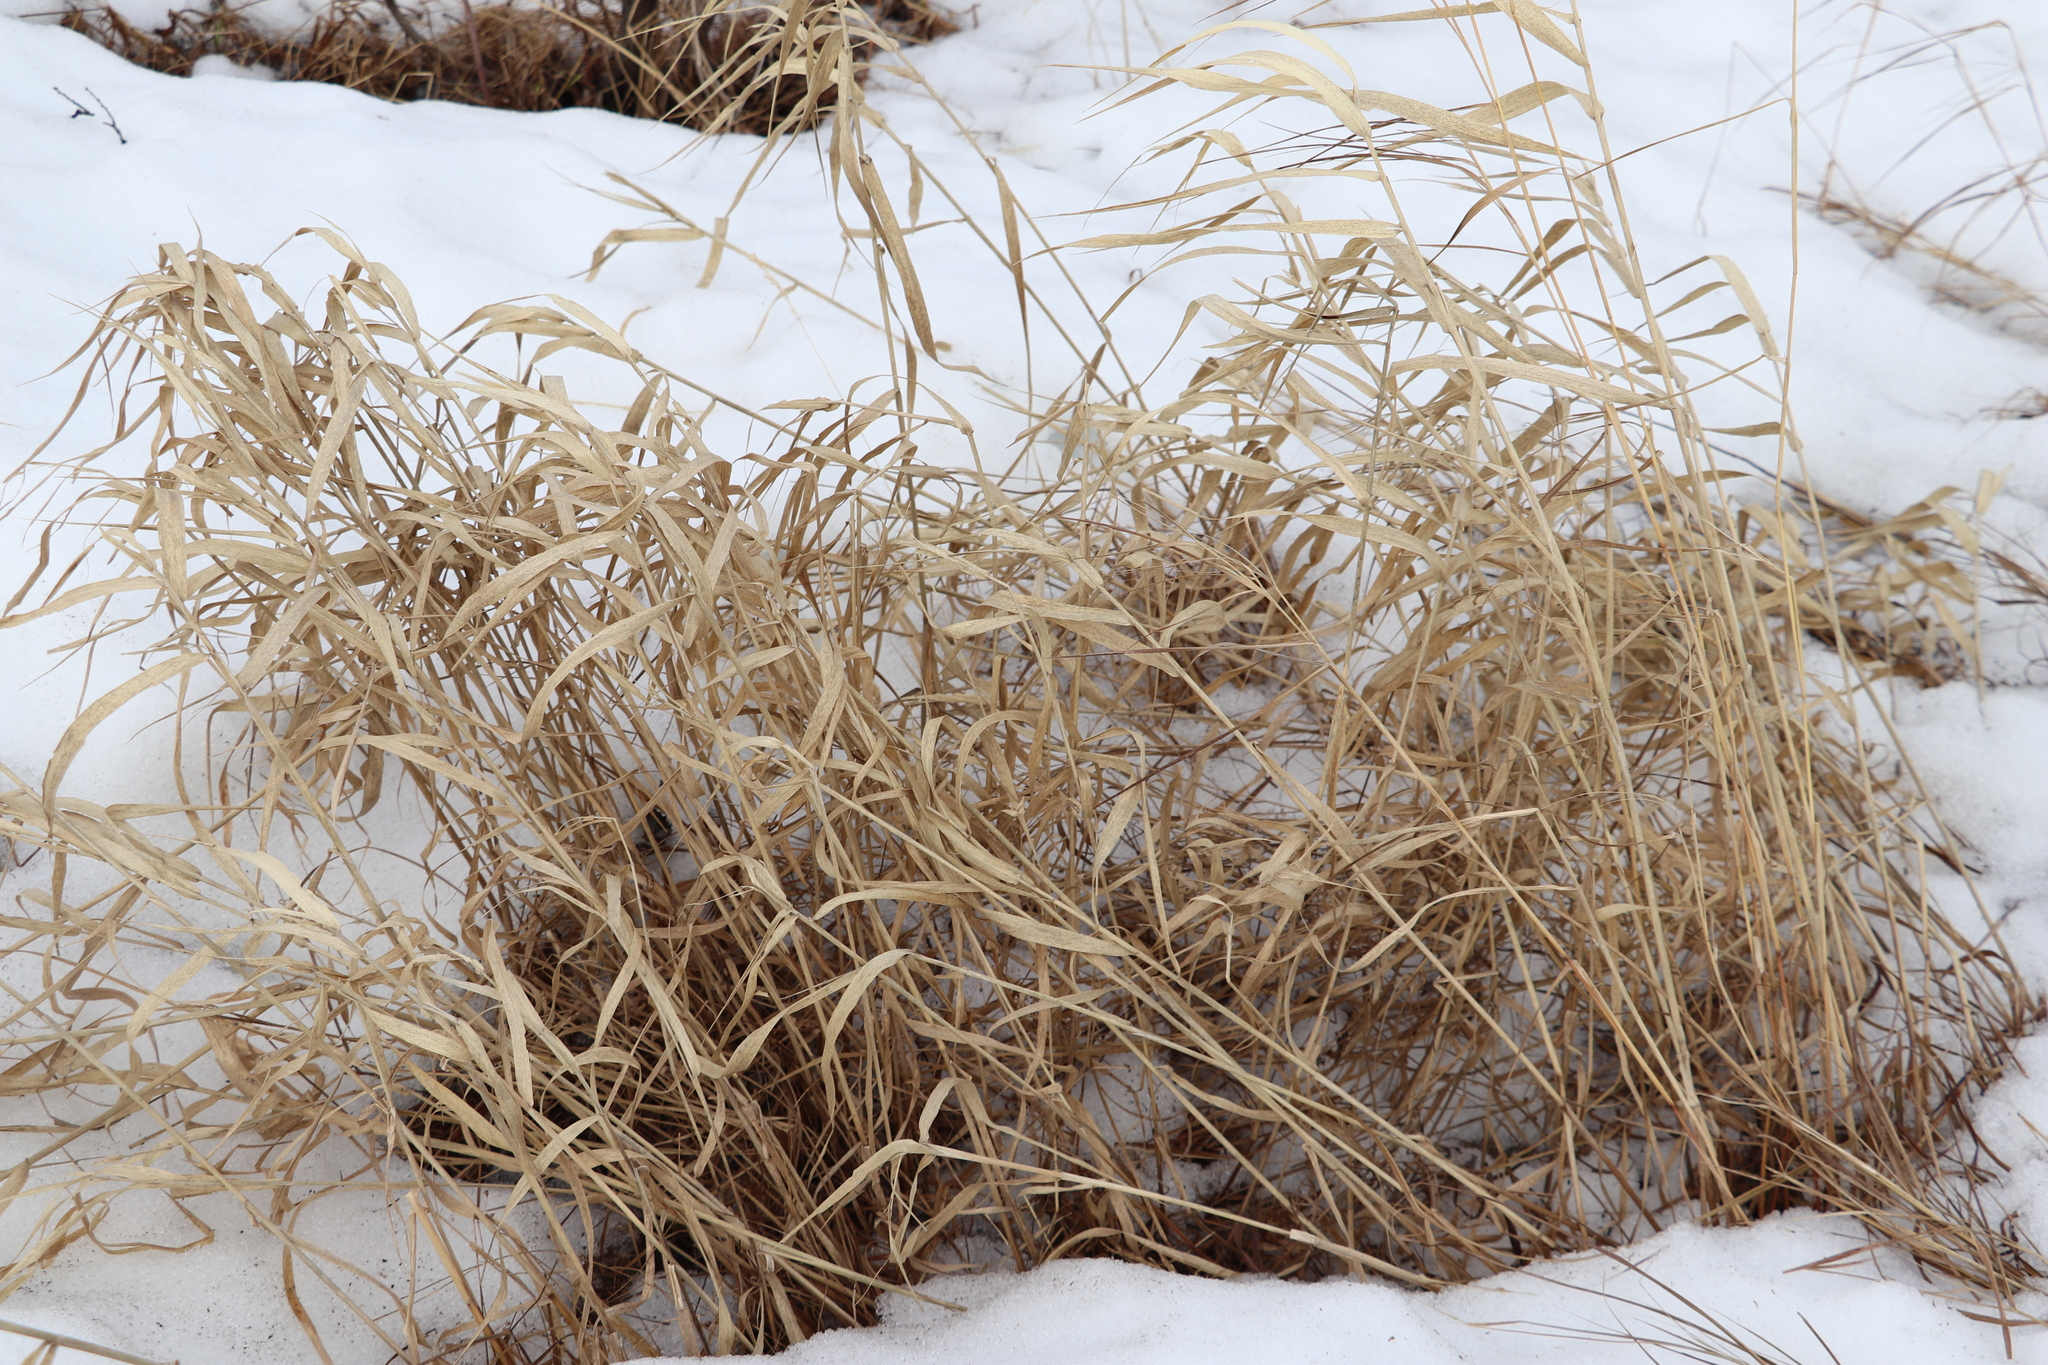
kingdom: Plantae
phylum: Tracheophyta
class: Liliopsida
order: Poales
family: Poaceae
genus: Phalaris
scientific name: Phalaris arundinacea
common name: Reed canary-grass
